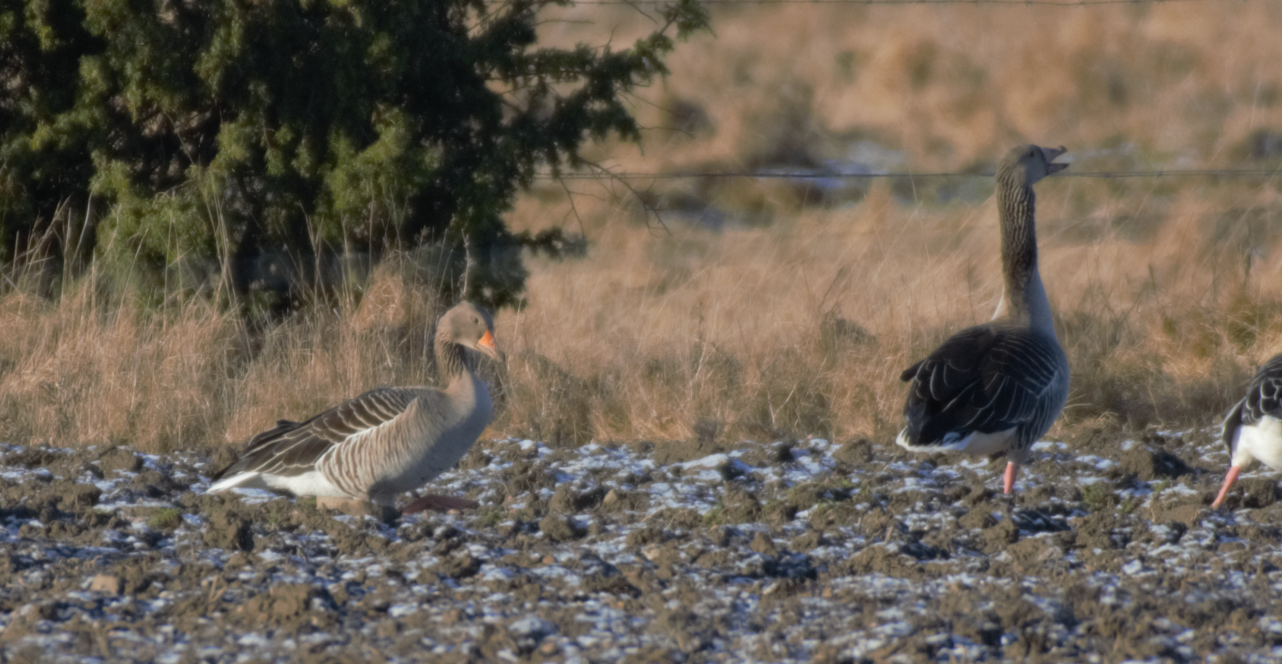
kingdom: Animalia
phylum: Chordata
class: Aves
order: Anseriformes
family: Anatidae
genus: Anser
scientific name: Anser anser
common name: Greylag goose
